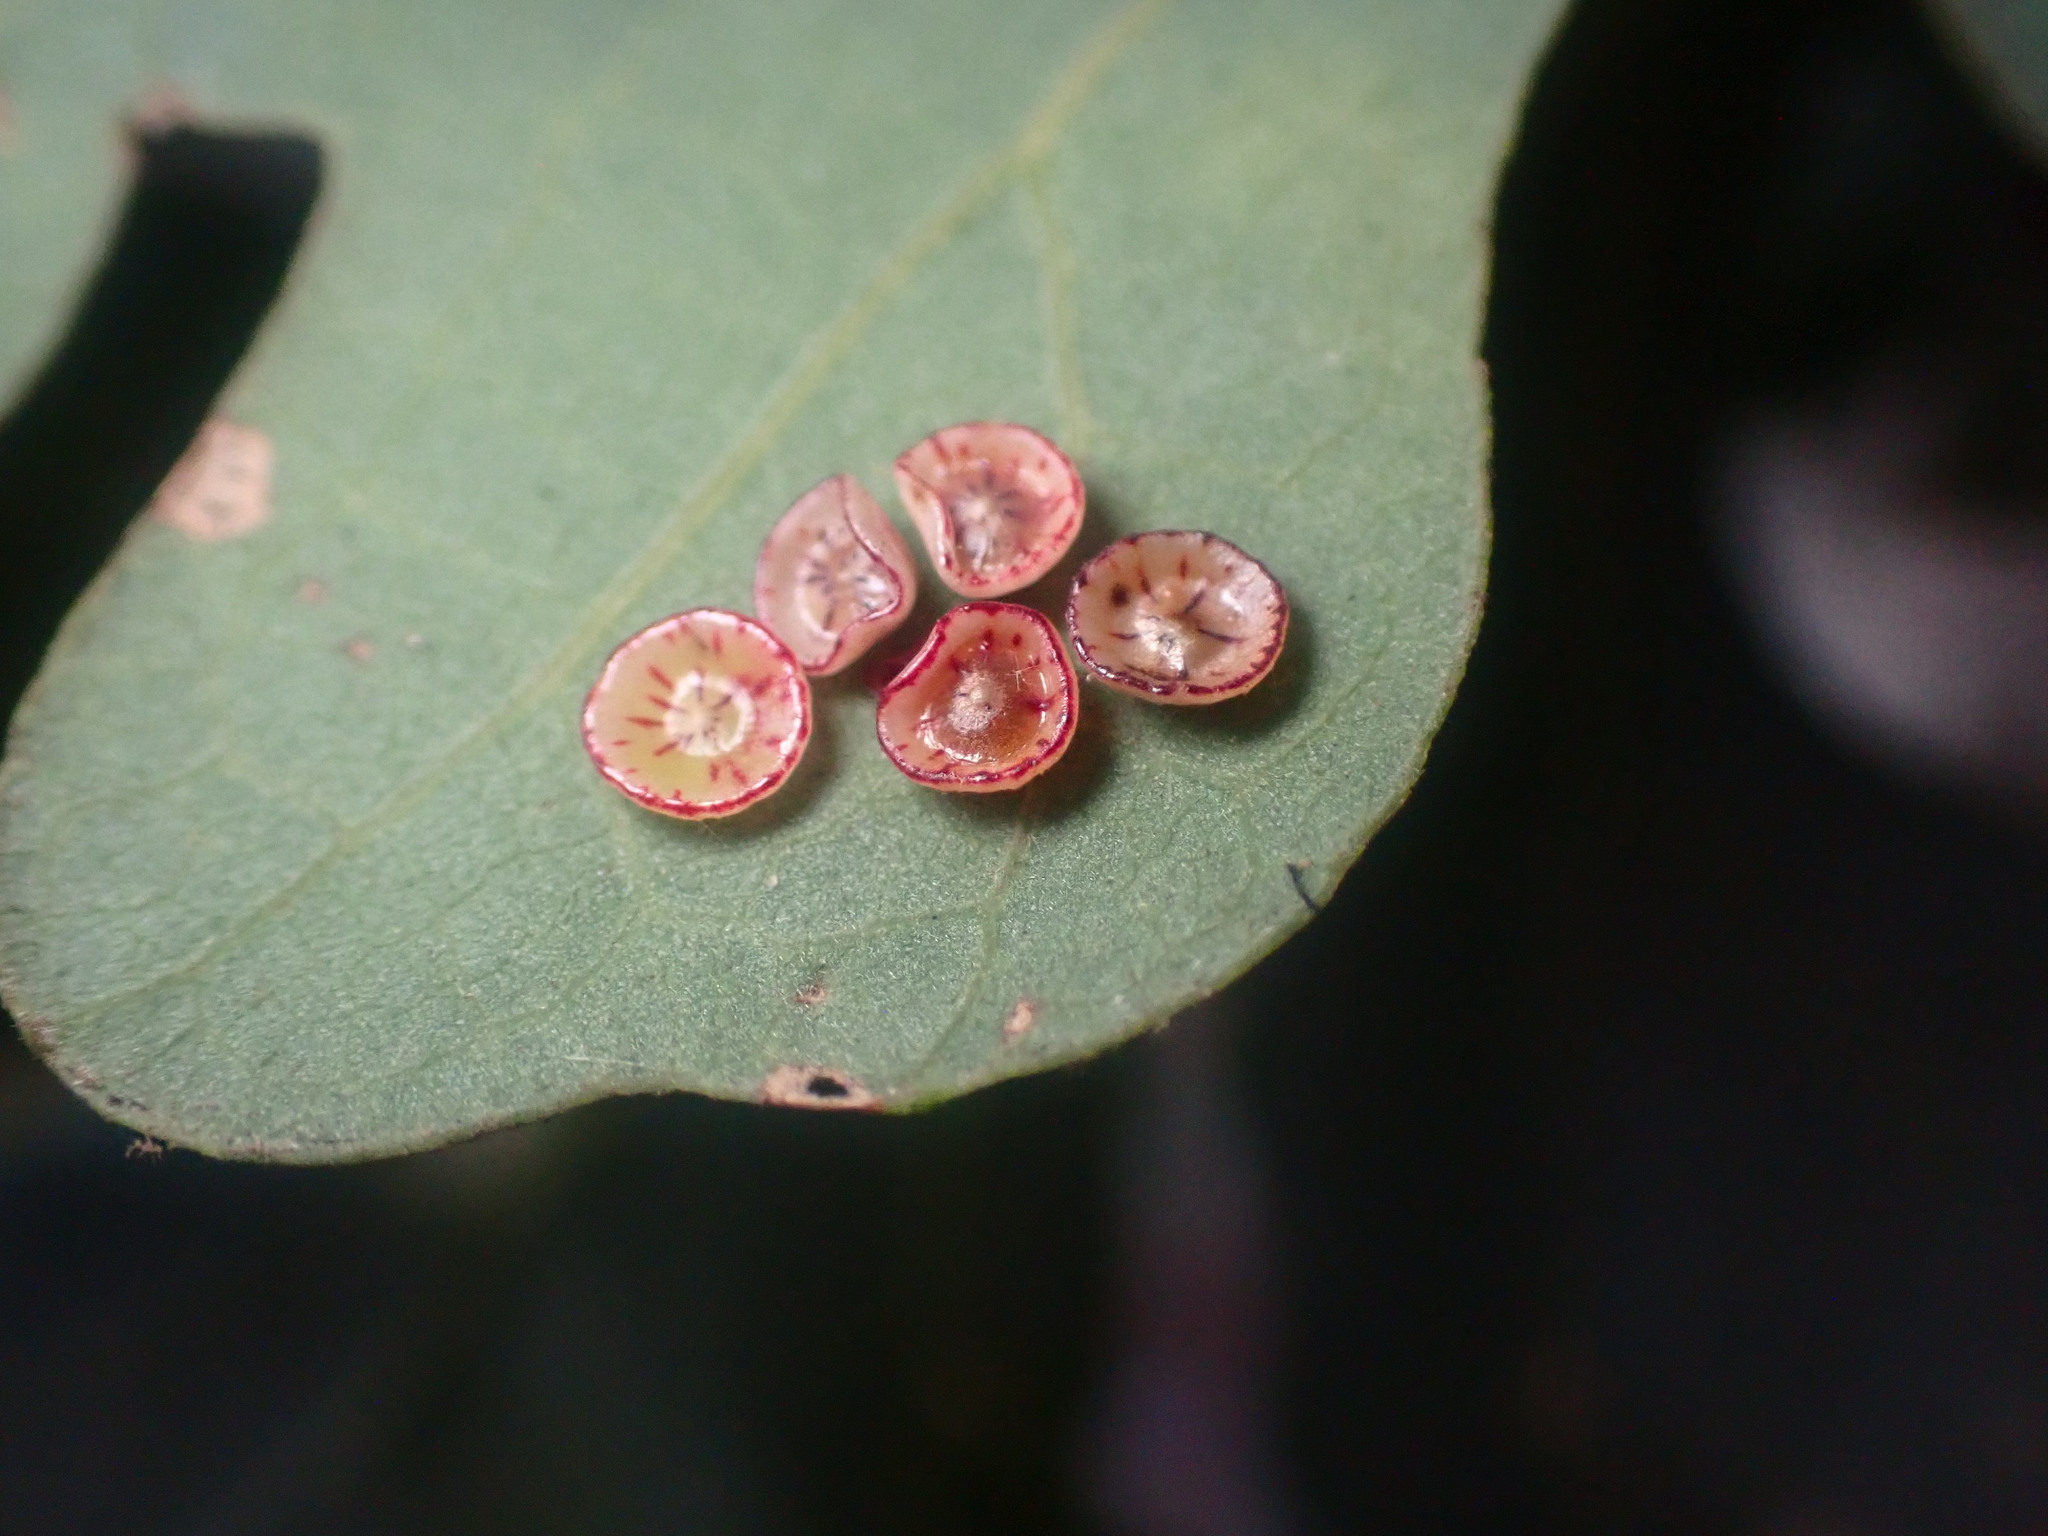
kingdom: Animalia
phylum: Arthropoda
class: Insecta
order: Hymenoptera
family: Cynipidae
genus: Andricus
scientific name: Andricus
